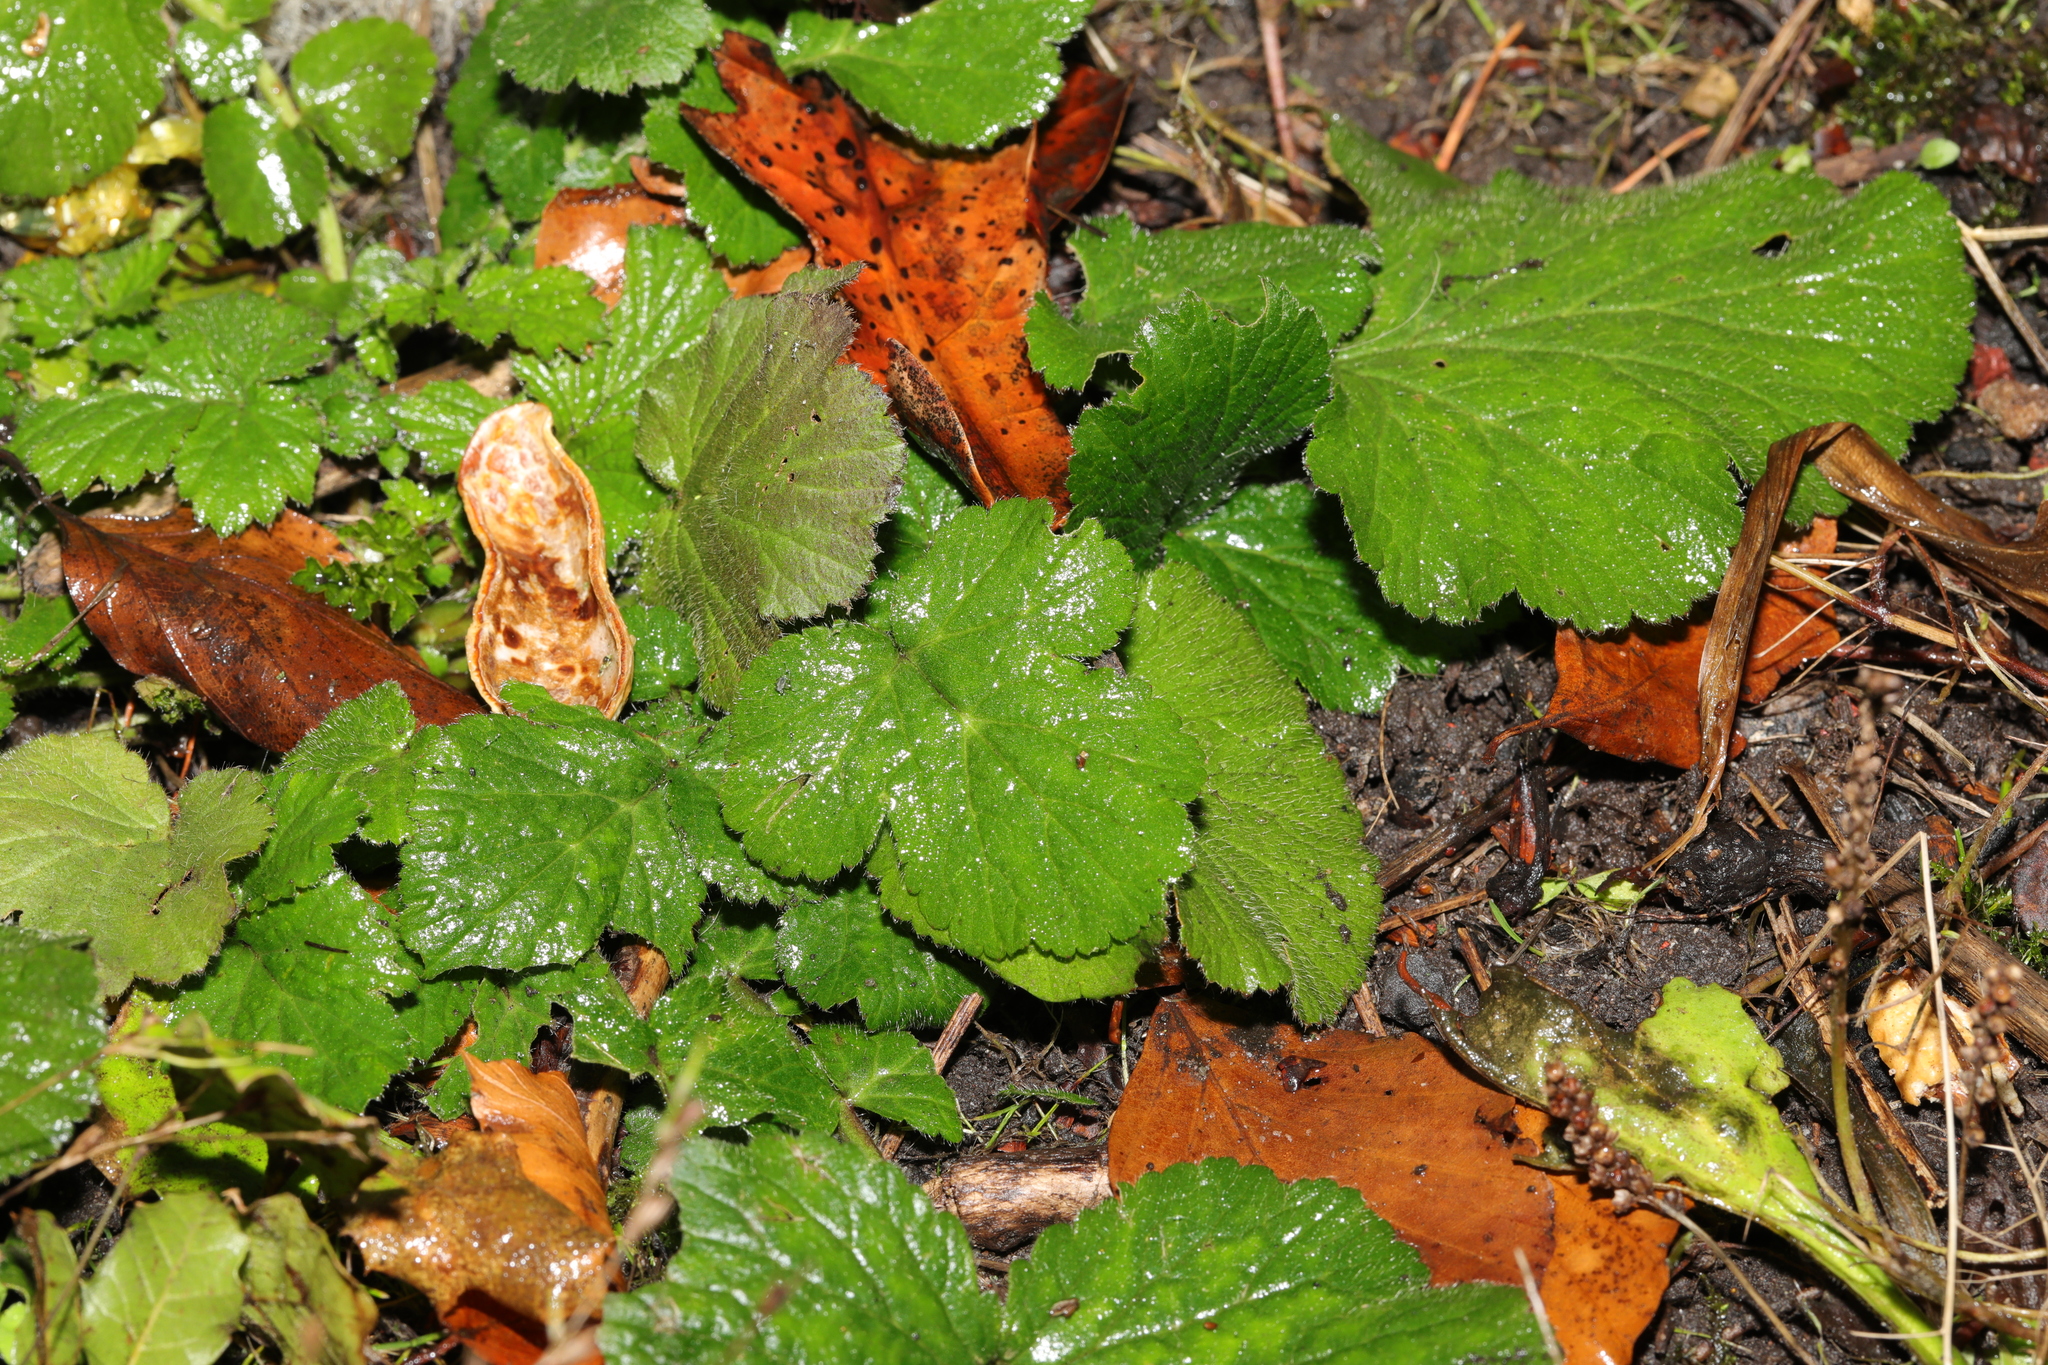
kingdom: Plantae
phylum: Tracheophyta
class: Magnoliopsida
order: Rosales
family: Rosaceae
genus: Geum
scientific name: Geum urbanum
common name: Wood avens
